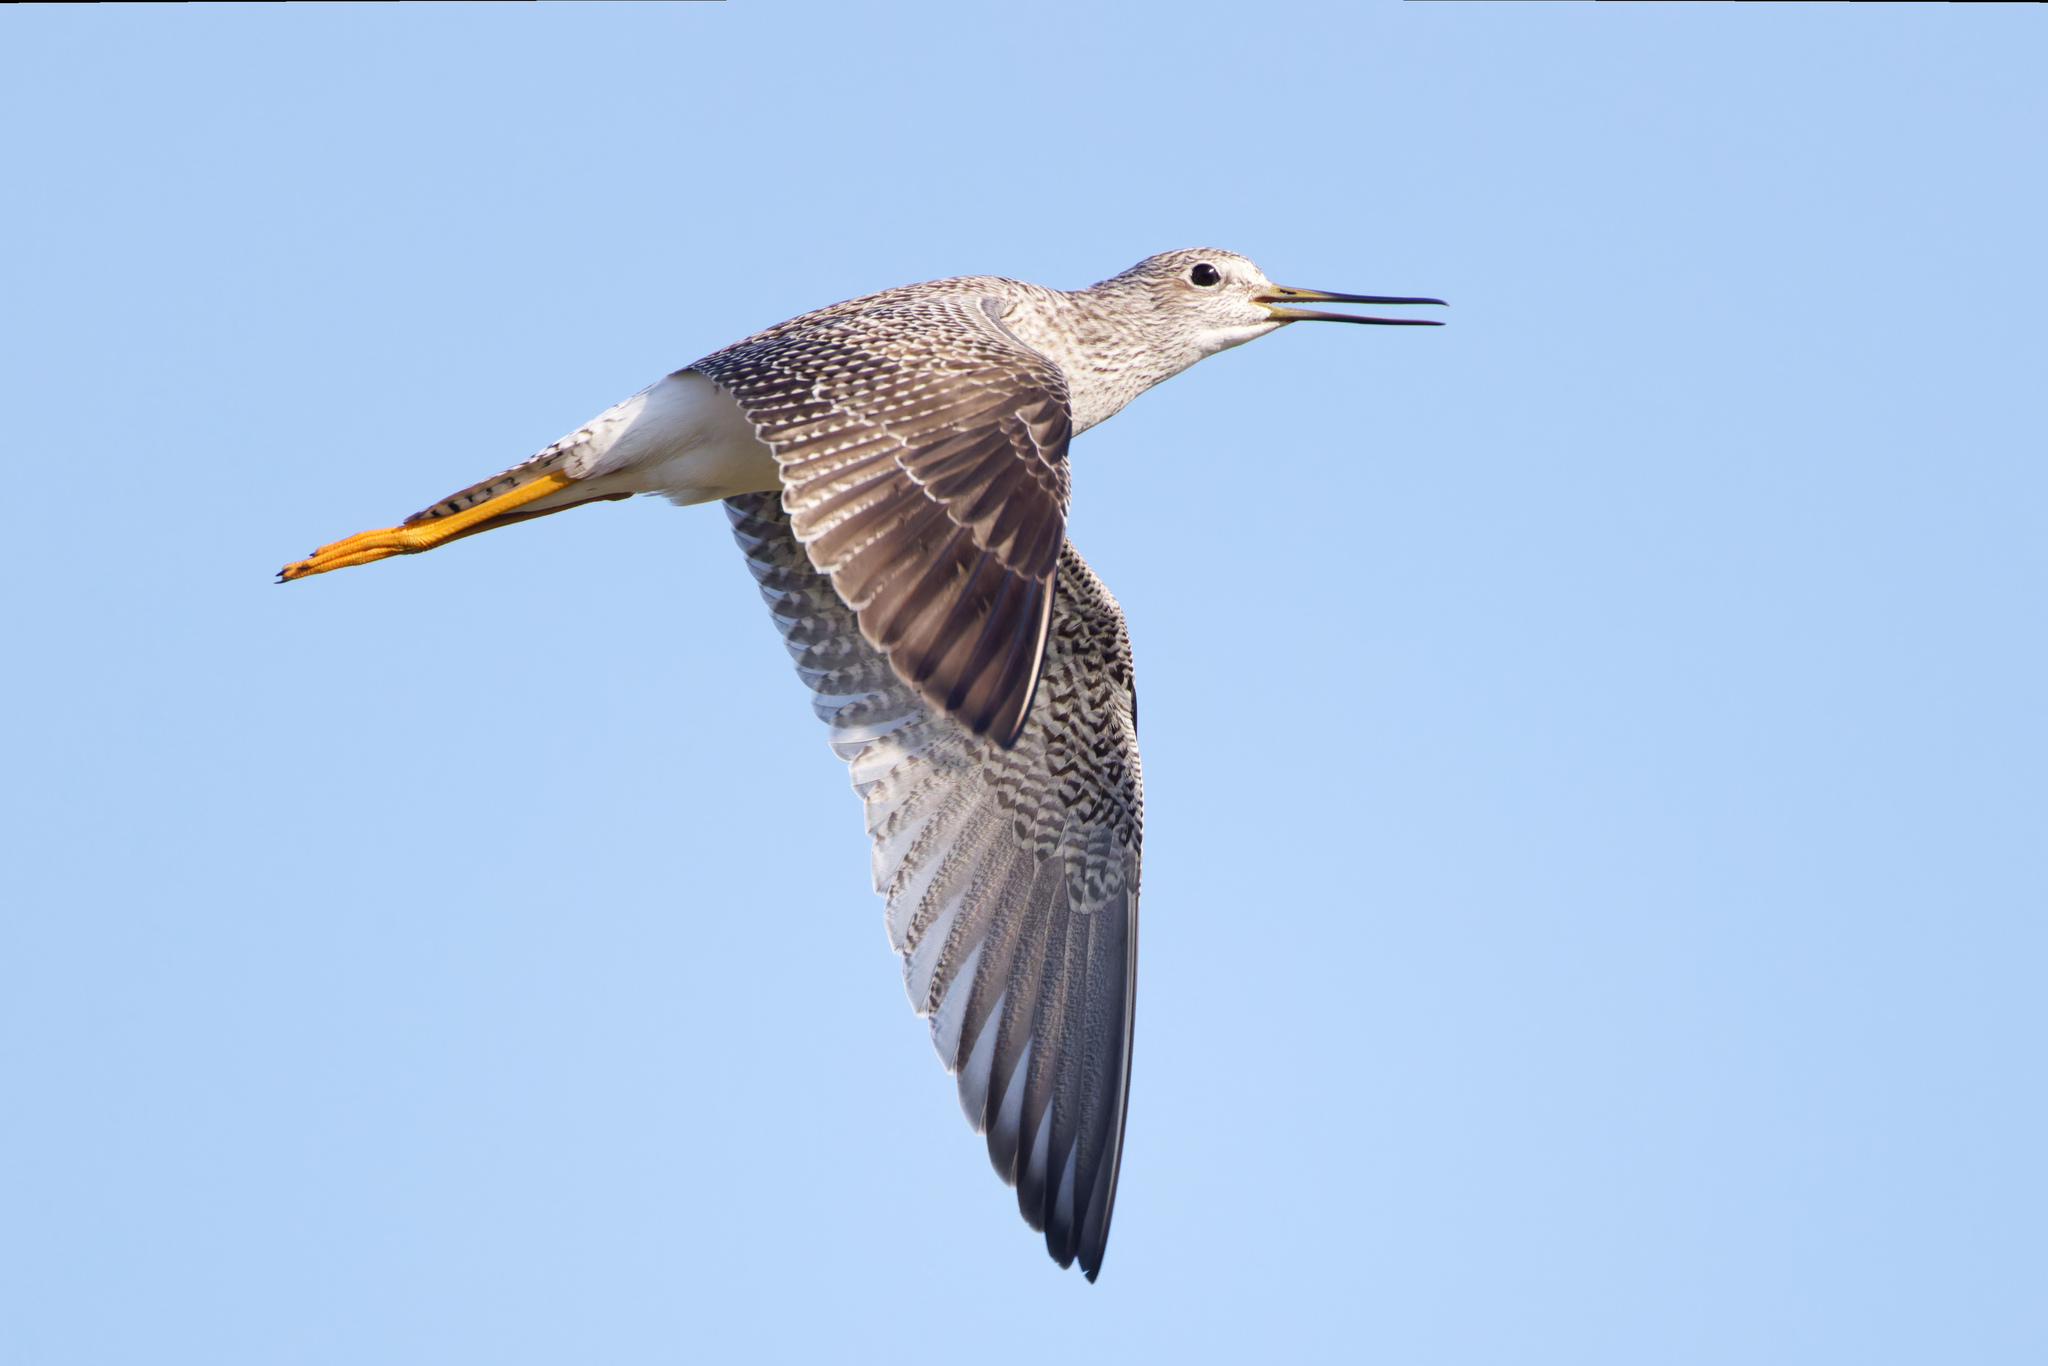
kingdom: Animalia
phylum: Chordata
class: Aves
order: Charadriiformes
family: Scolopacidae
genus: Tringa
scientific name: Tringa melanoleuca
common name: Greater yellowlegs
